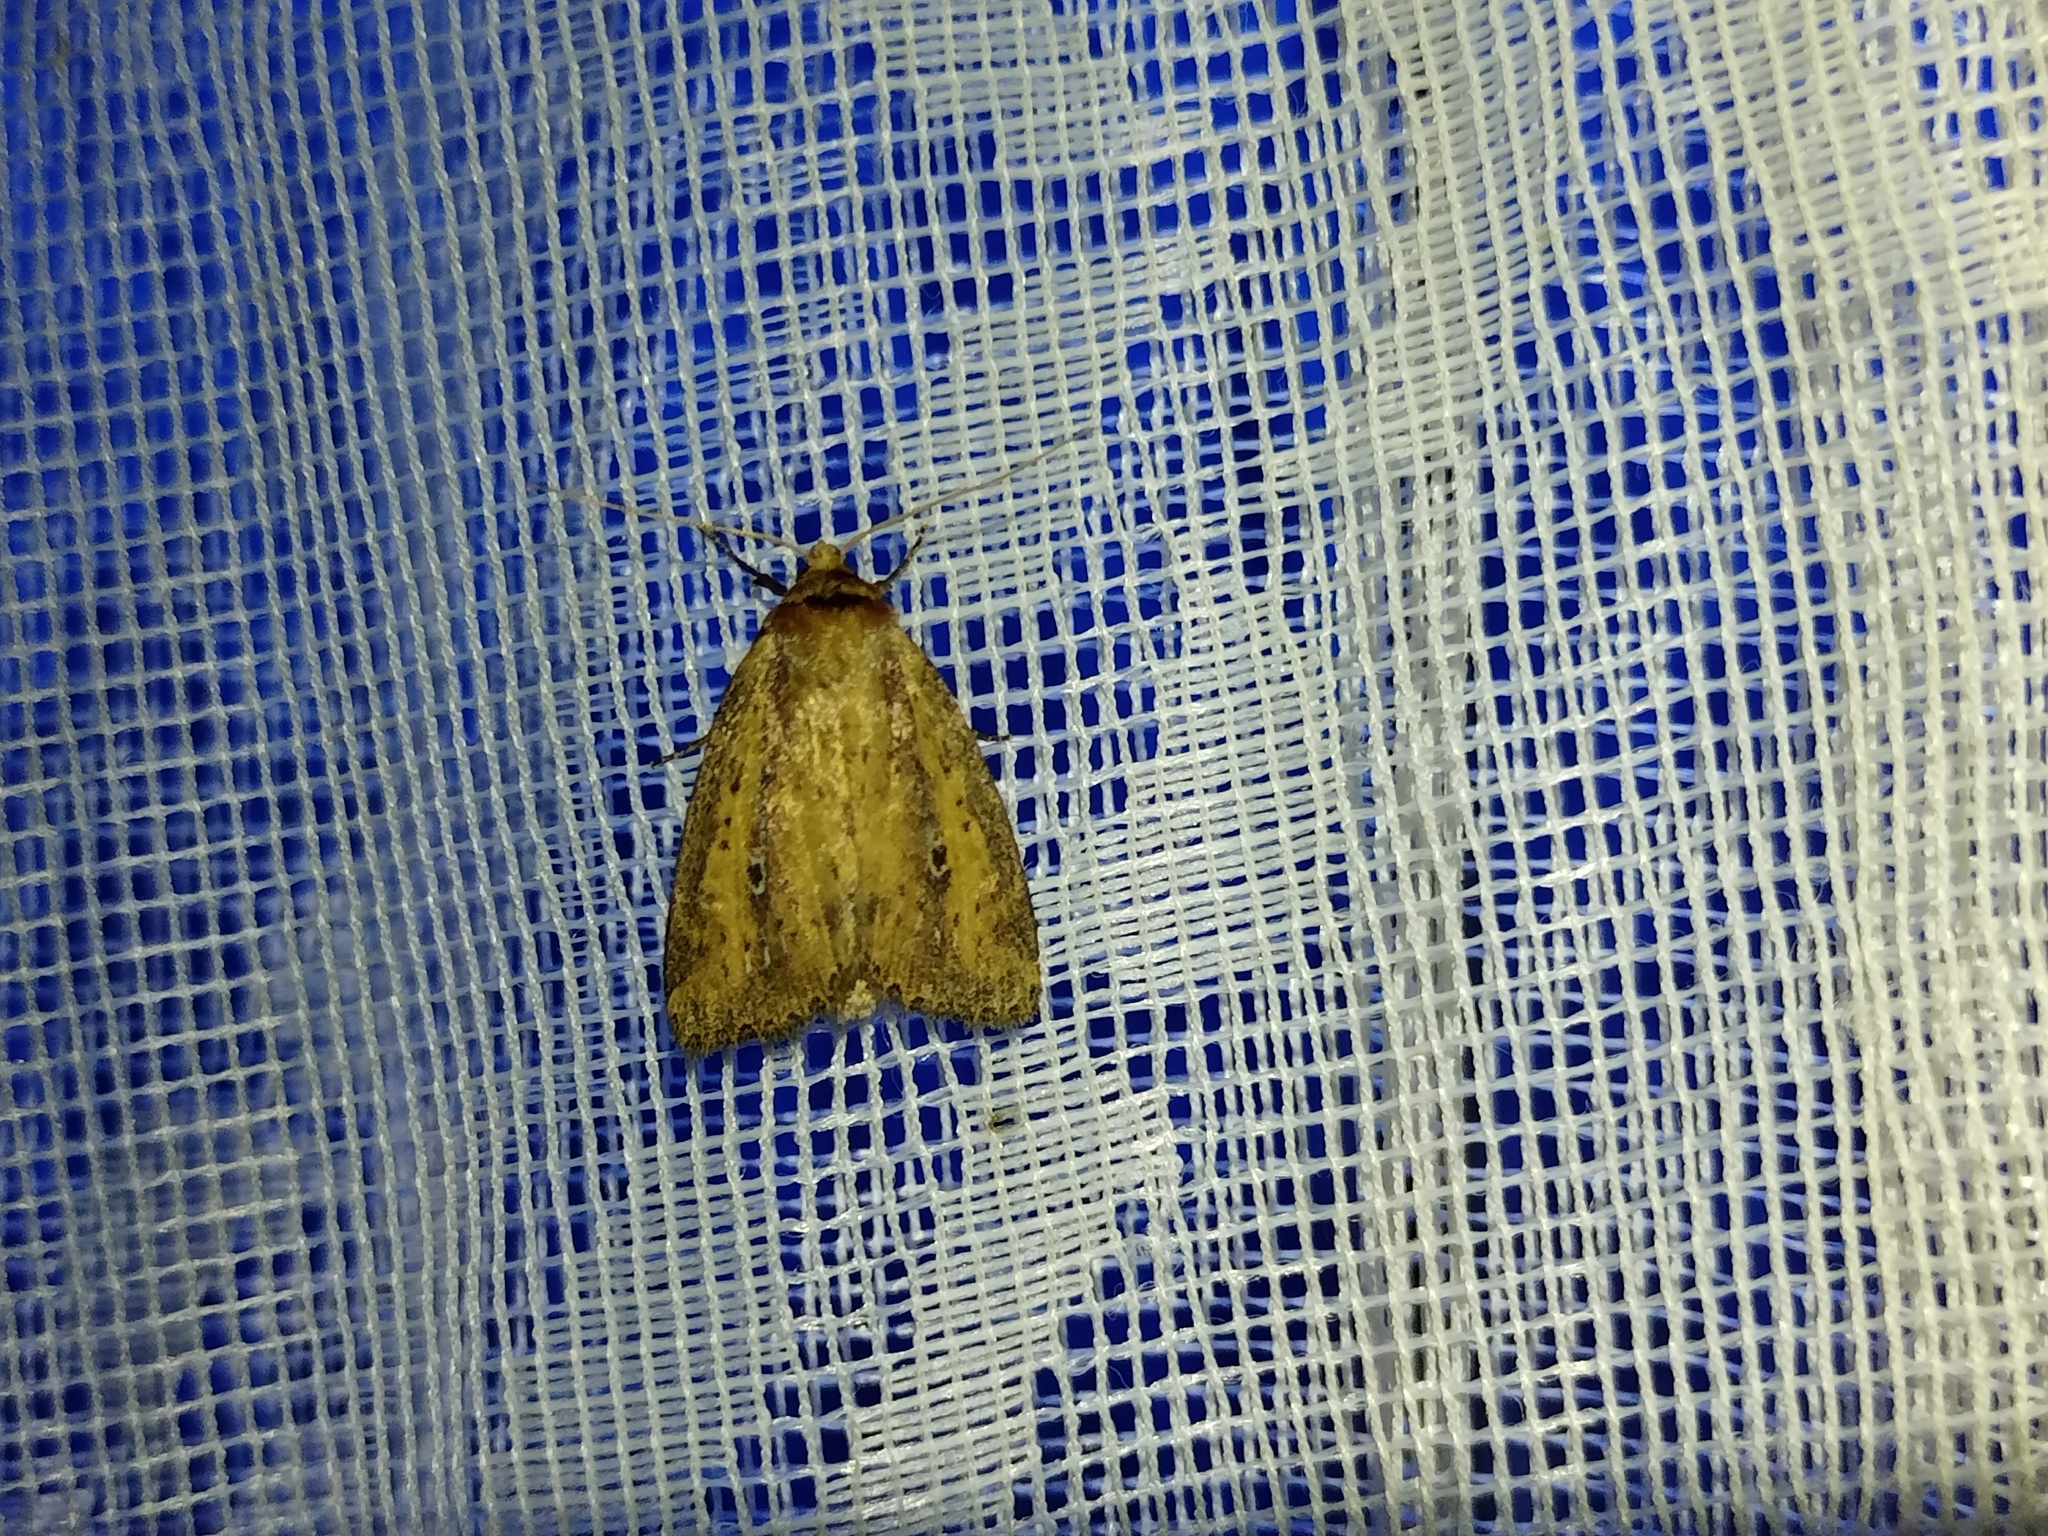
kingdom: Animalia
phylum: Arthropoda
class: Insecta
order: Lepidoptera
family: Noctuidae
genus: Archanara
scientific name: Archanara dissoluta
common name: Brown-veined wainscot
